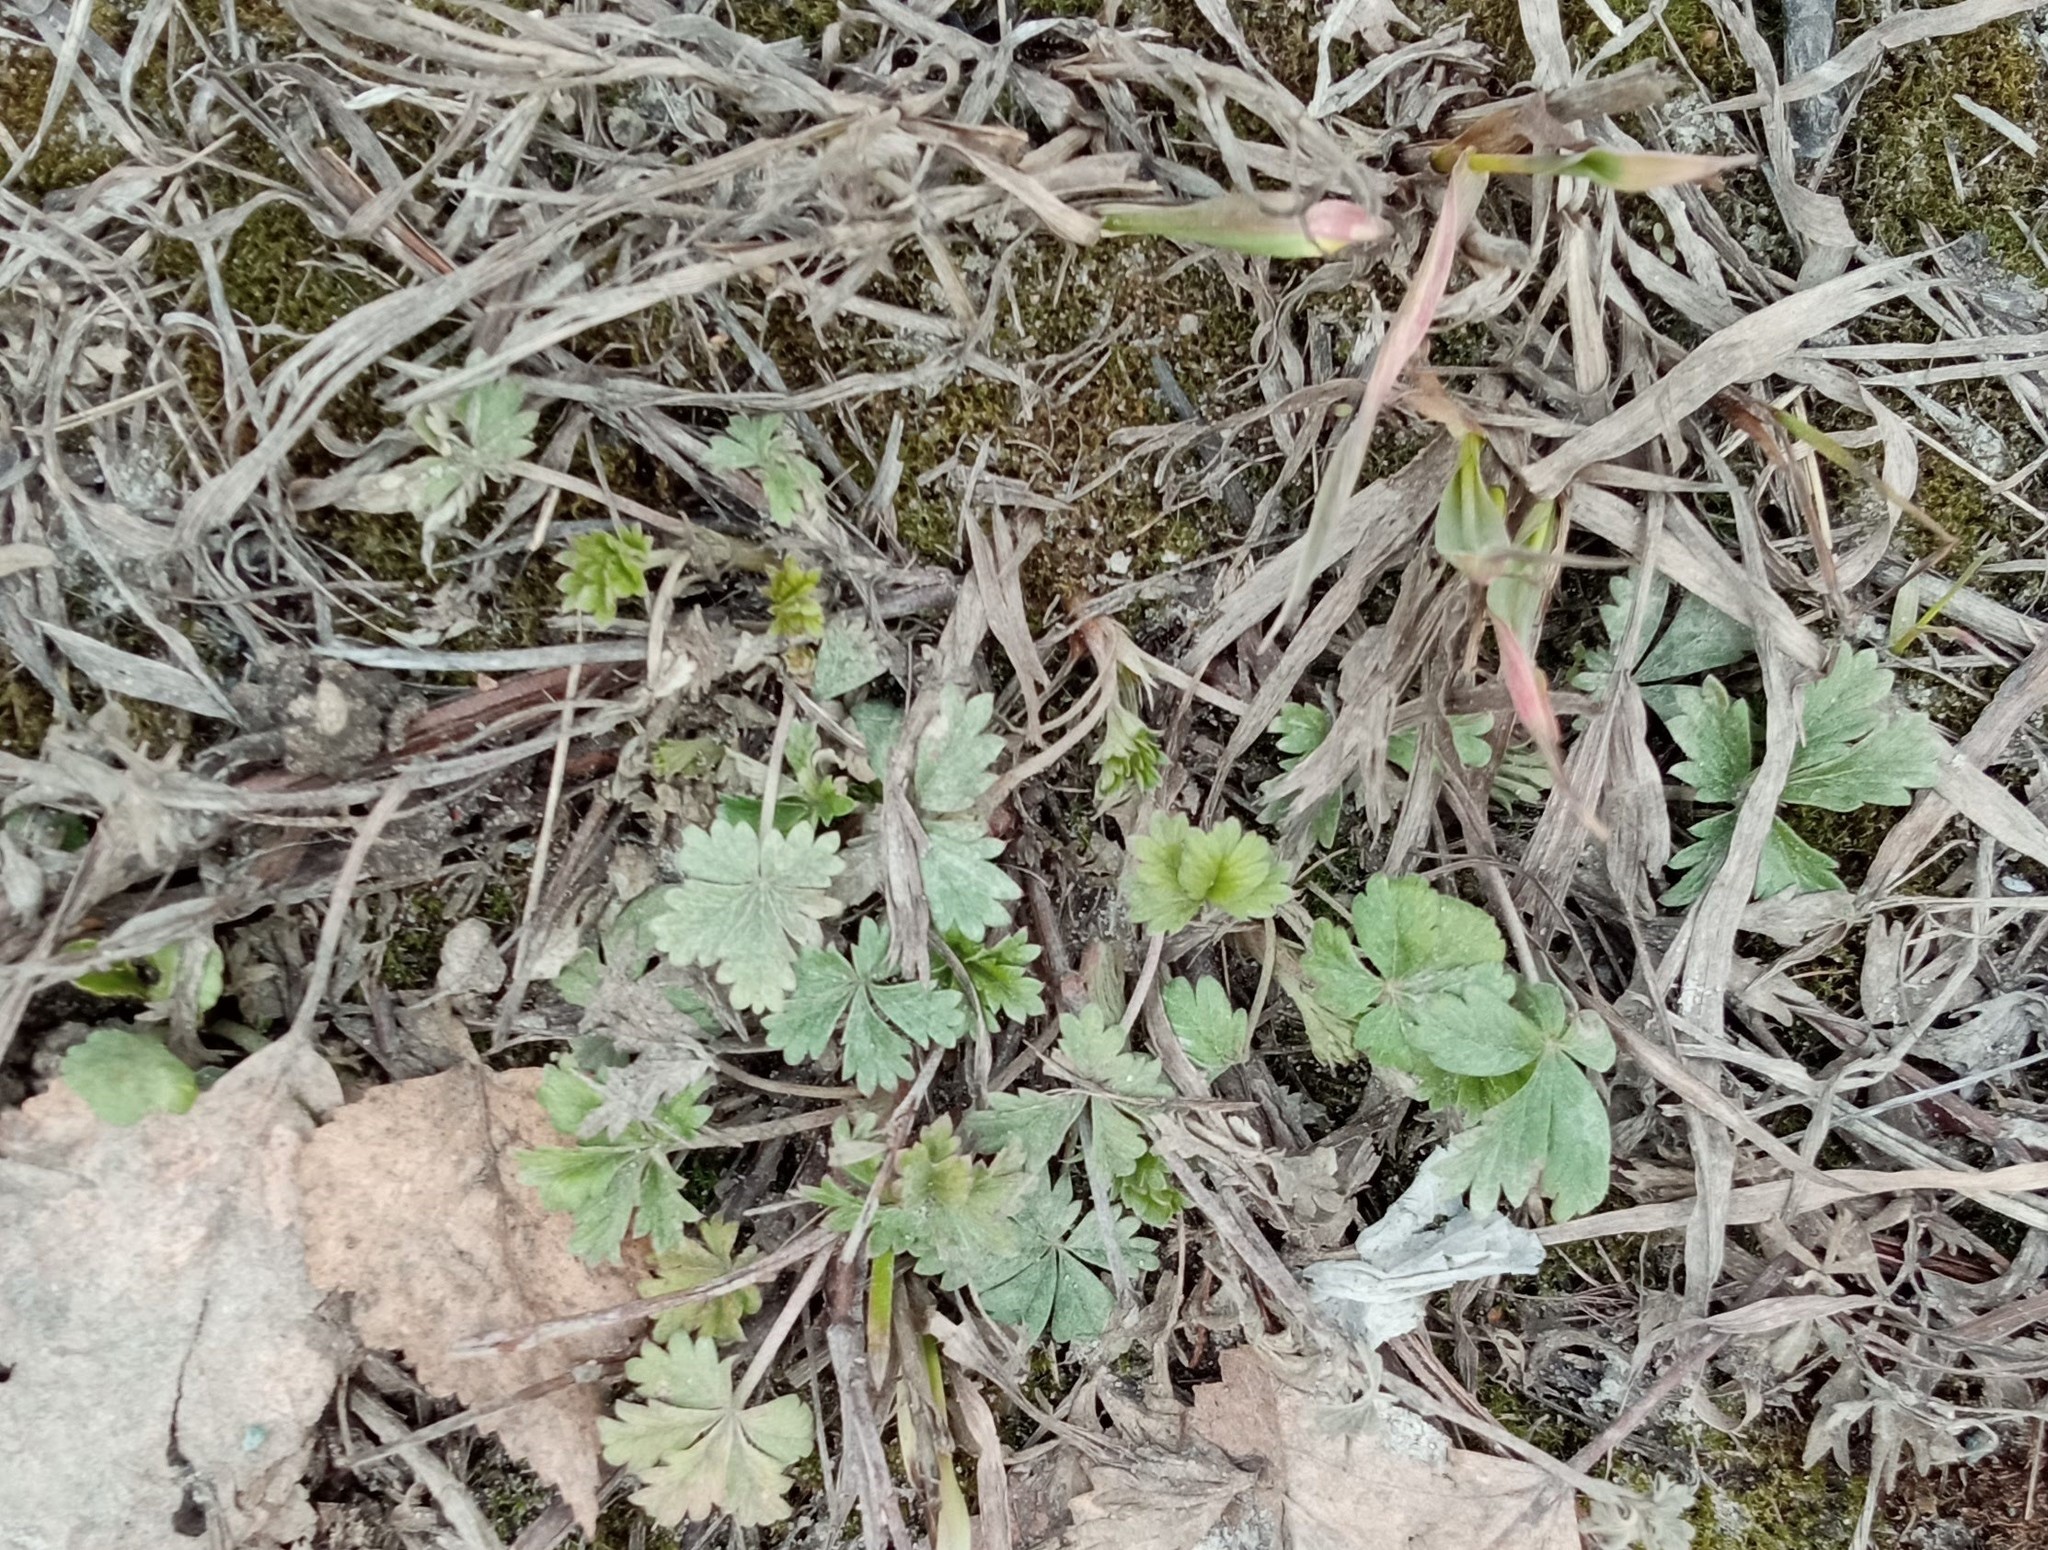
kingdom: Plantae
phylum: Tracheophyta
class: Magnoliopsida
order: Rosales
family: Rosaceae
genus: Potentilla
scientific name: Potentilla argentea
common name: Hoary cinquefoil
